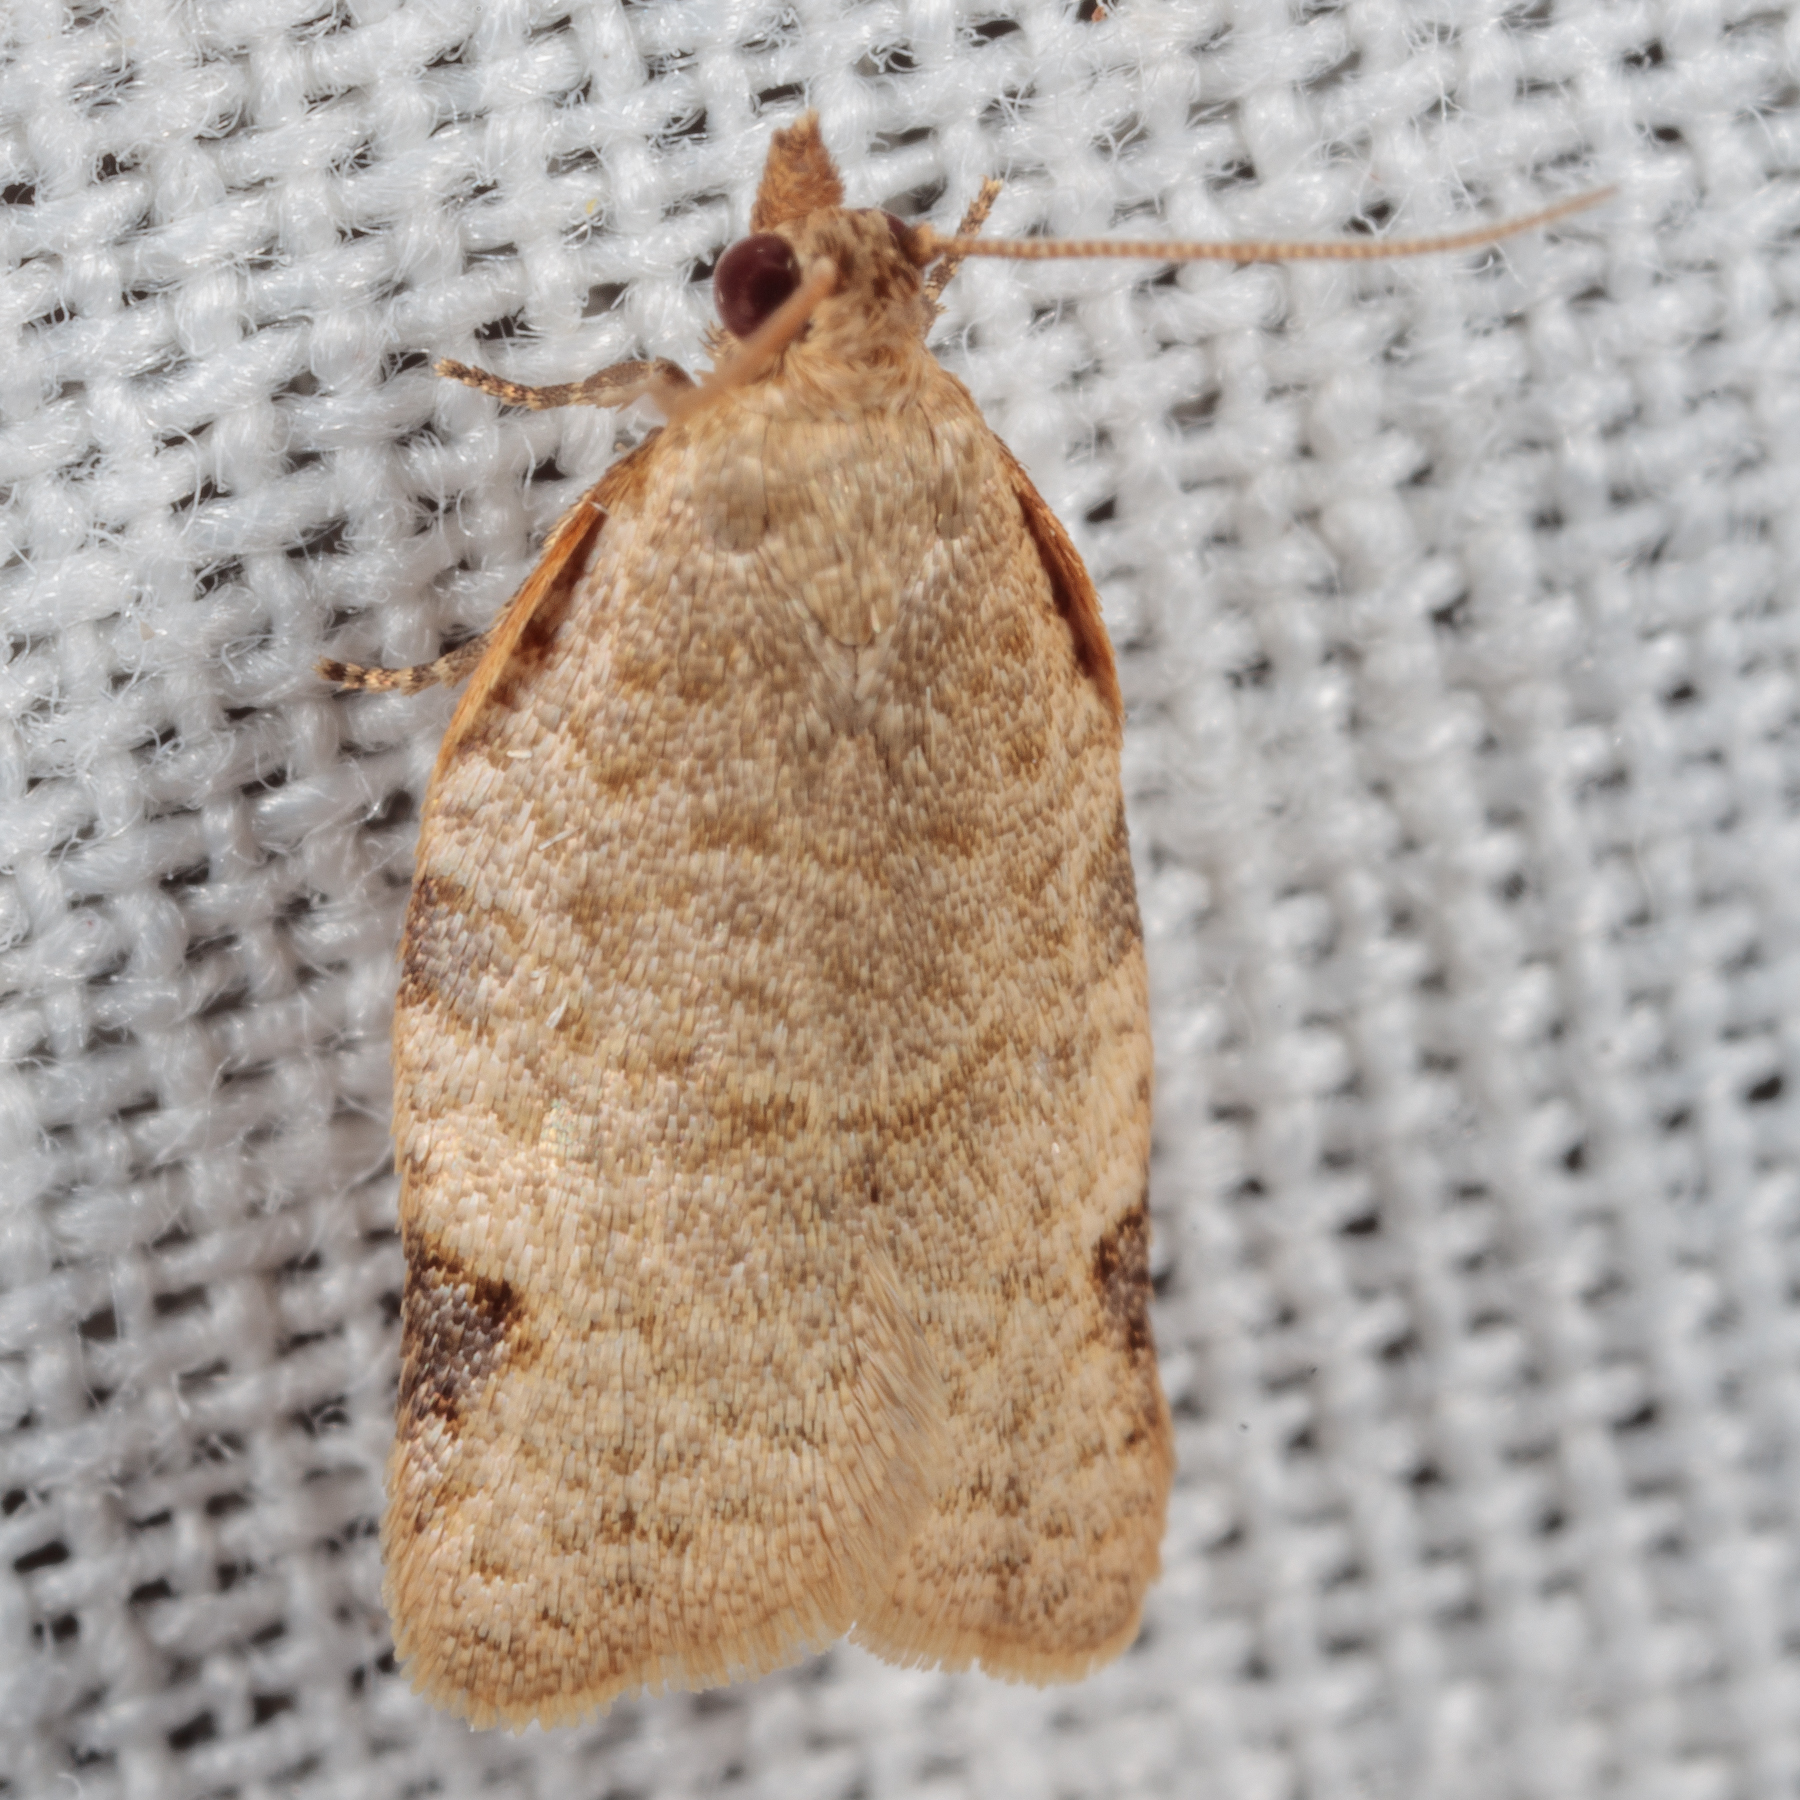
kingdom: Animalia
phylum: Arthropoda
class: Insecta
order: Lepidoptera
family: Tortricidae
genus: Clepsis
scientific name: Clepsis virescana
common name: Greenish apple moth
